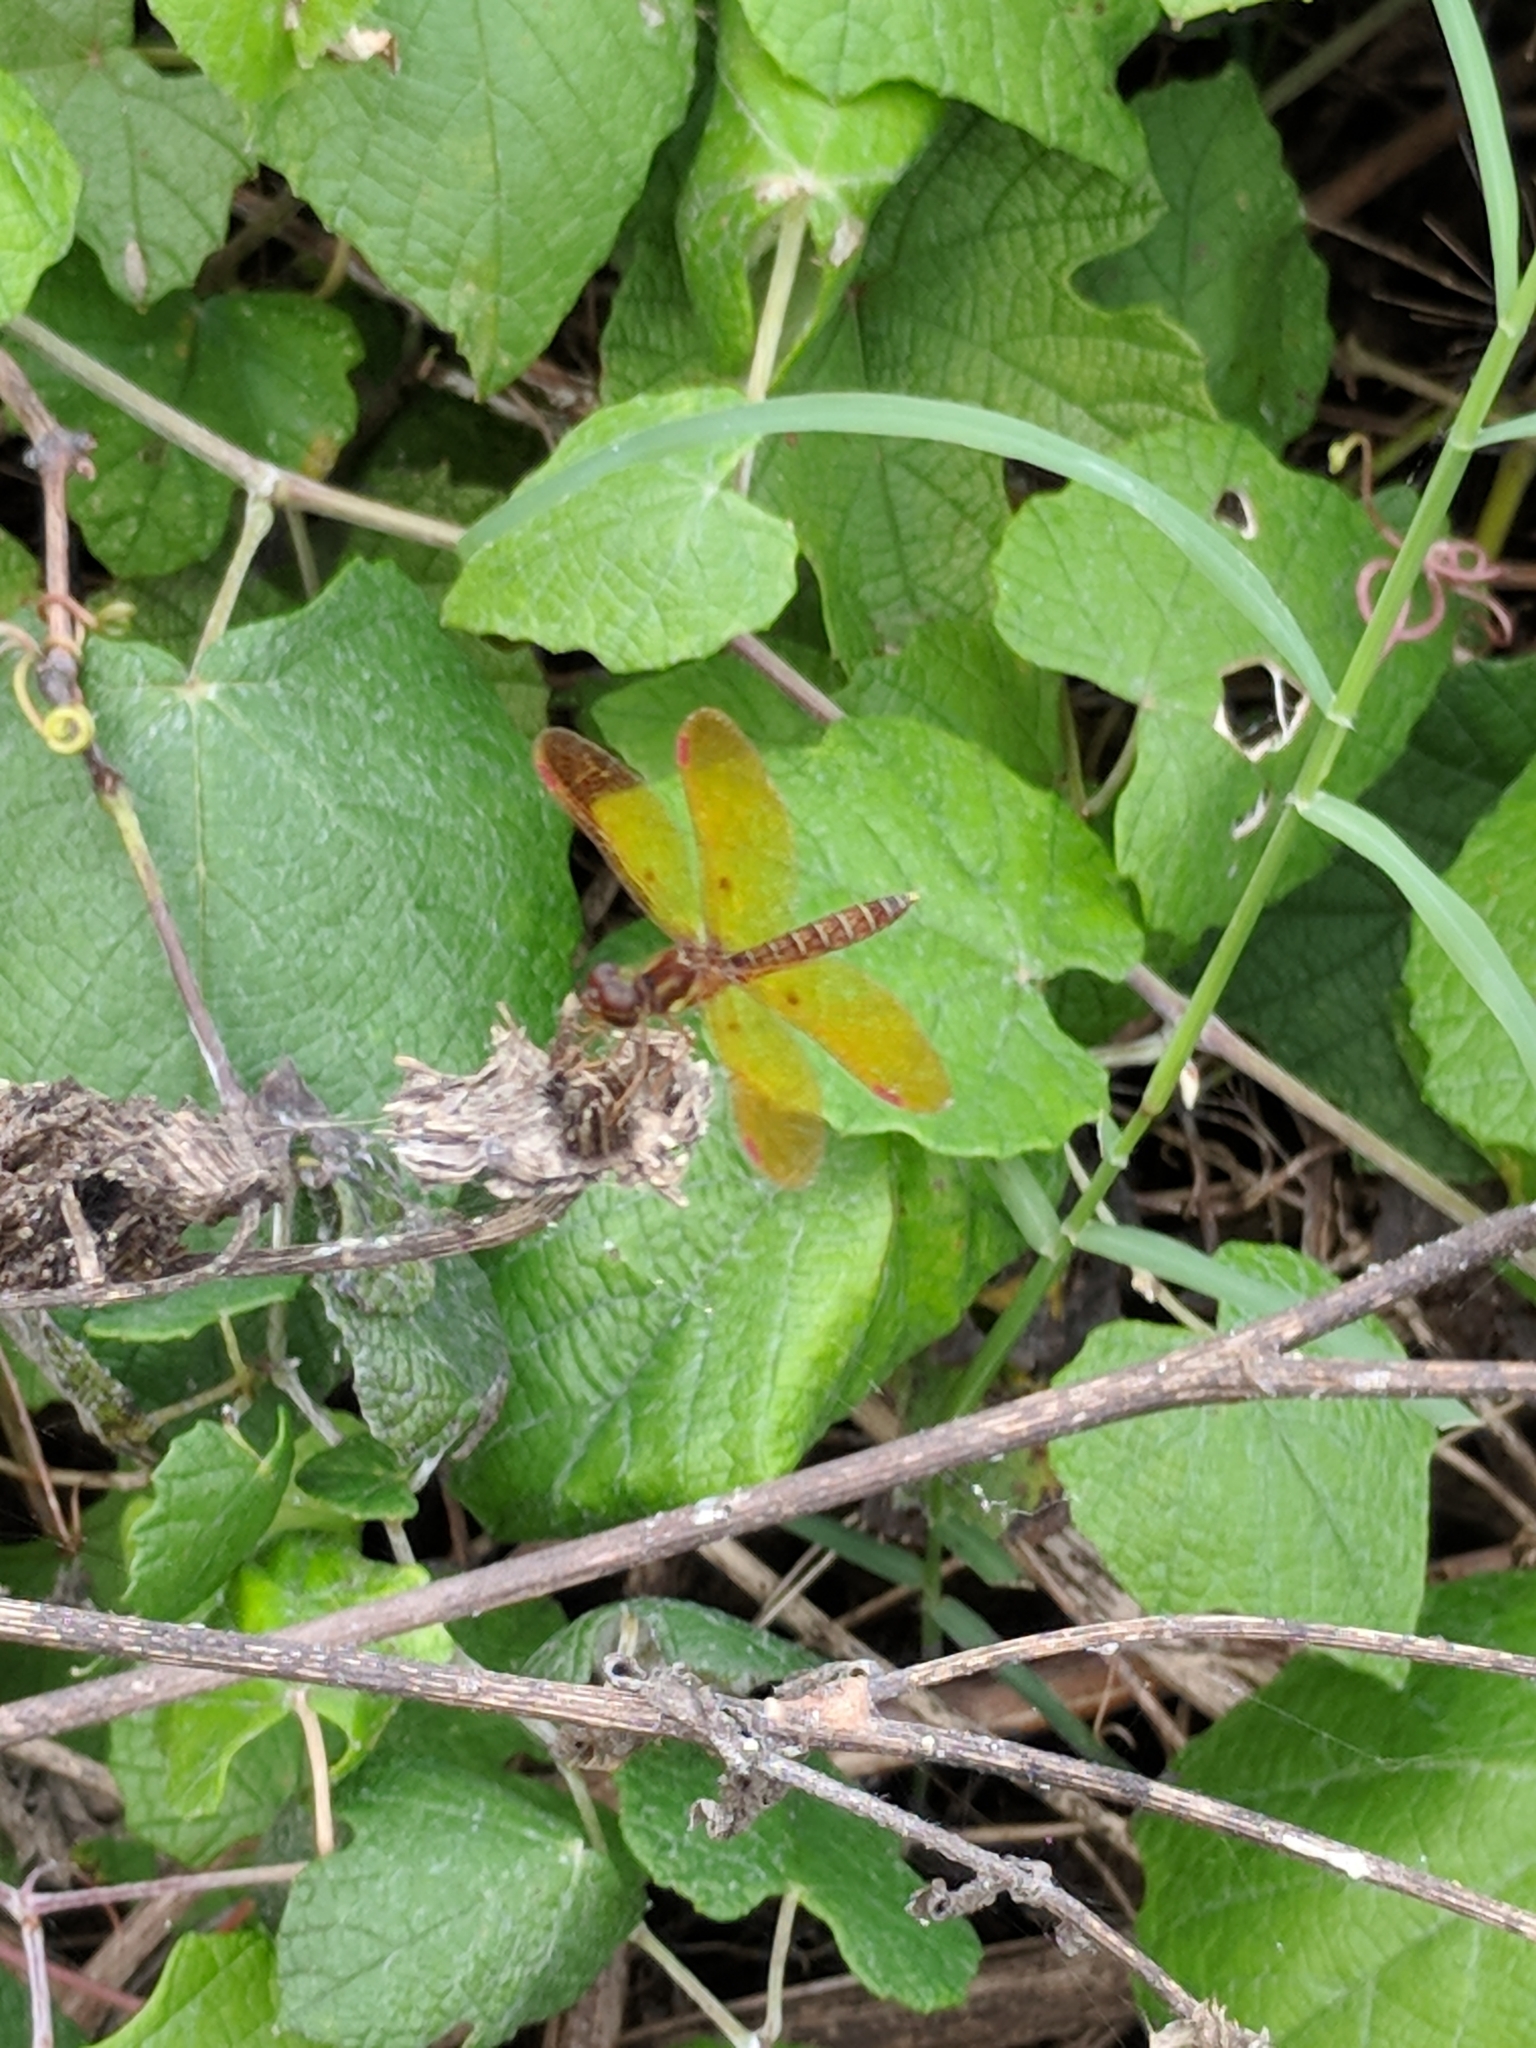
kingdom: Animalia
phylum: Arthropoda
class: Insecta
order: Odonata
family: Libellulidae
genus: Perithemis
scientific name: Perithemis tenera
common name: Eastern amberwing
